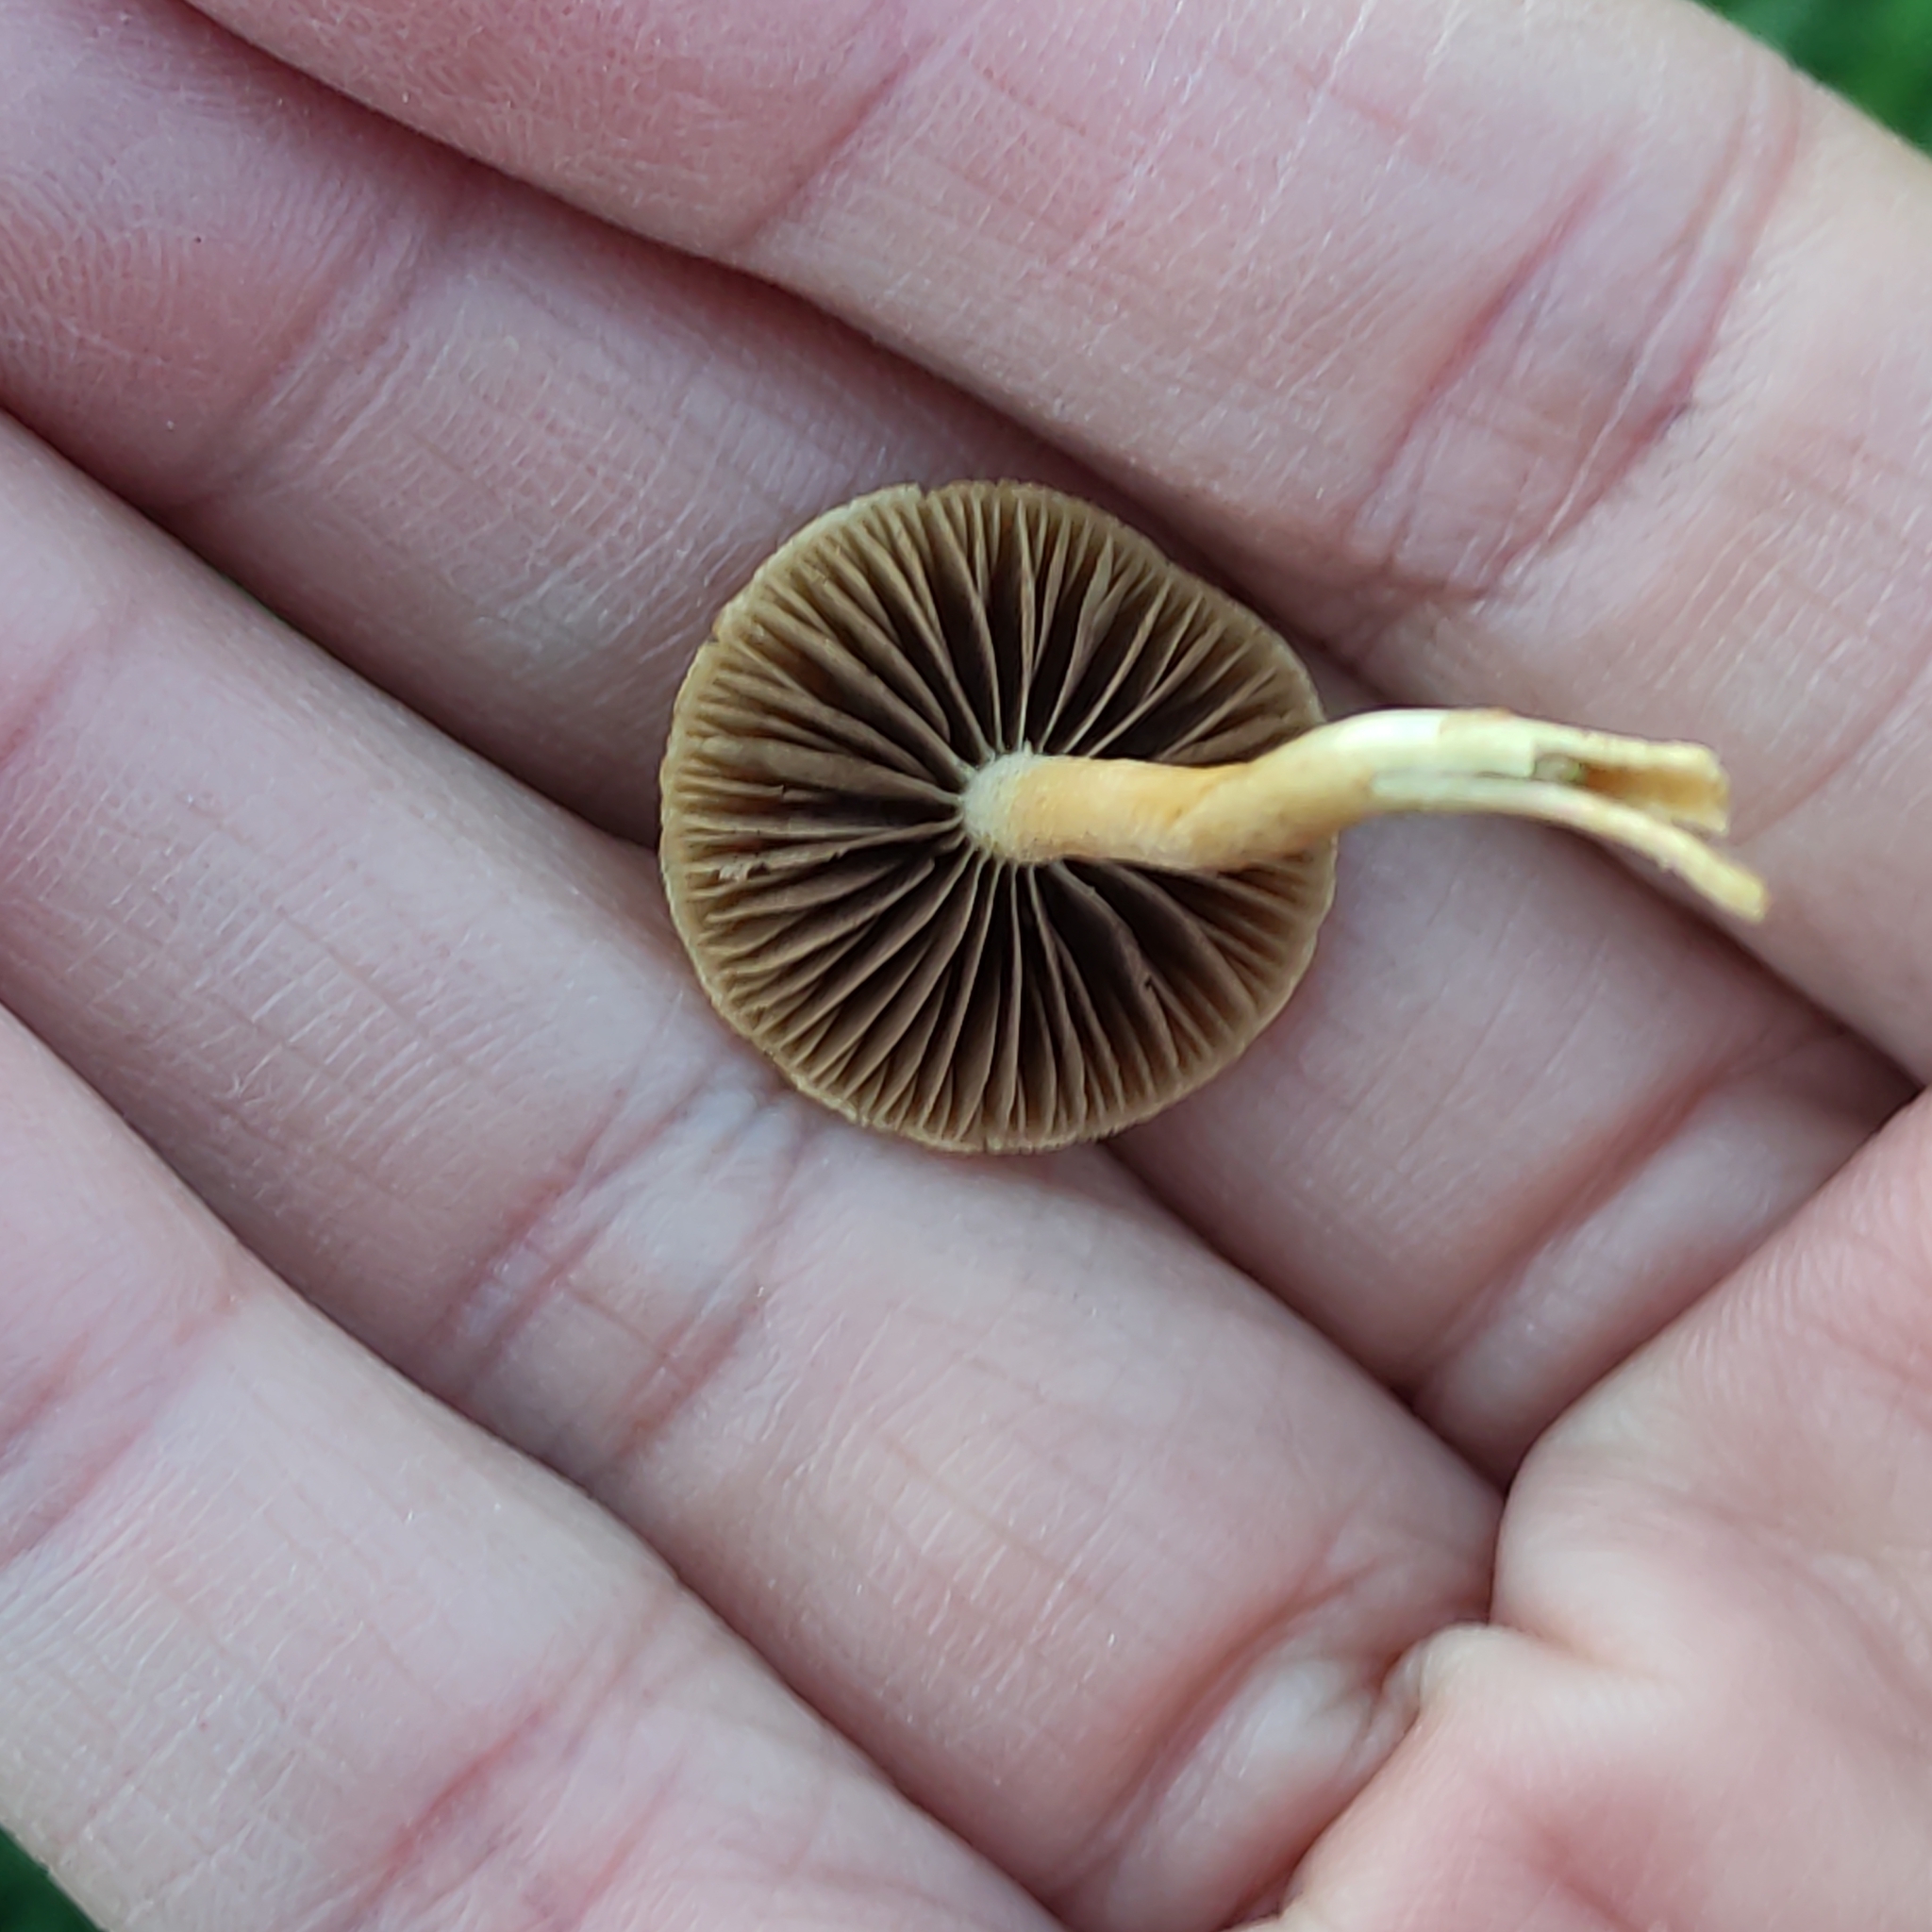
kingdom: Fungi
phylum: Basidiomycota
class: Agaricomycetes
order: Agaricales
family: Strophariaceae
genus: Agrocybe
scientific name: Agrocybe pediades
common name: Common fieldcap
